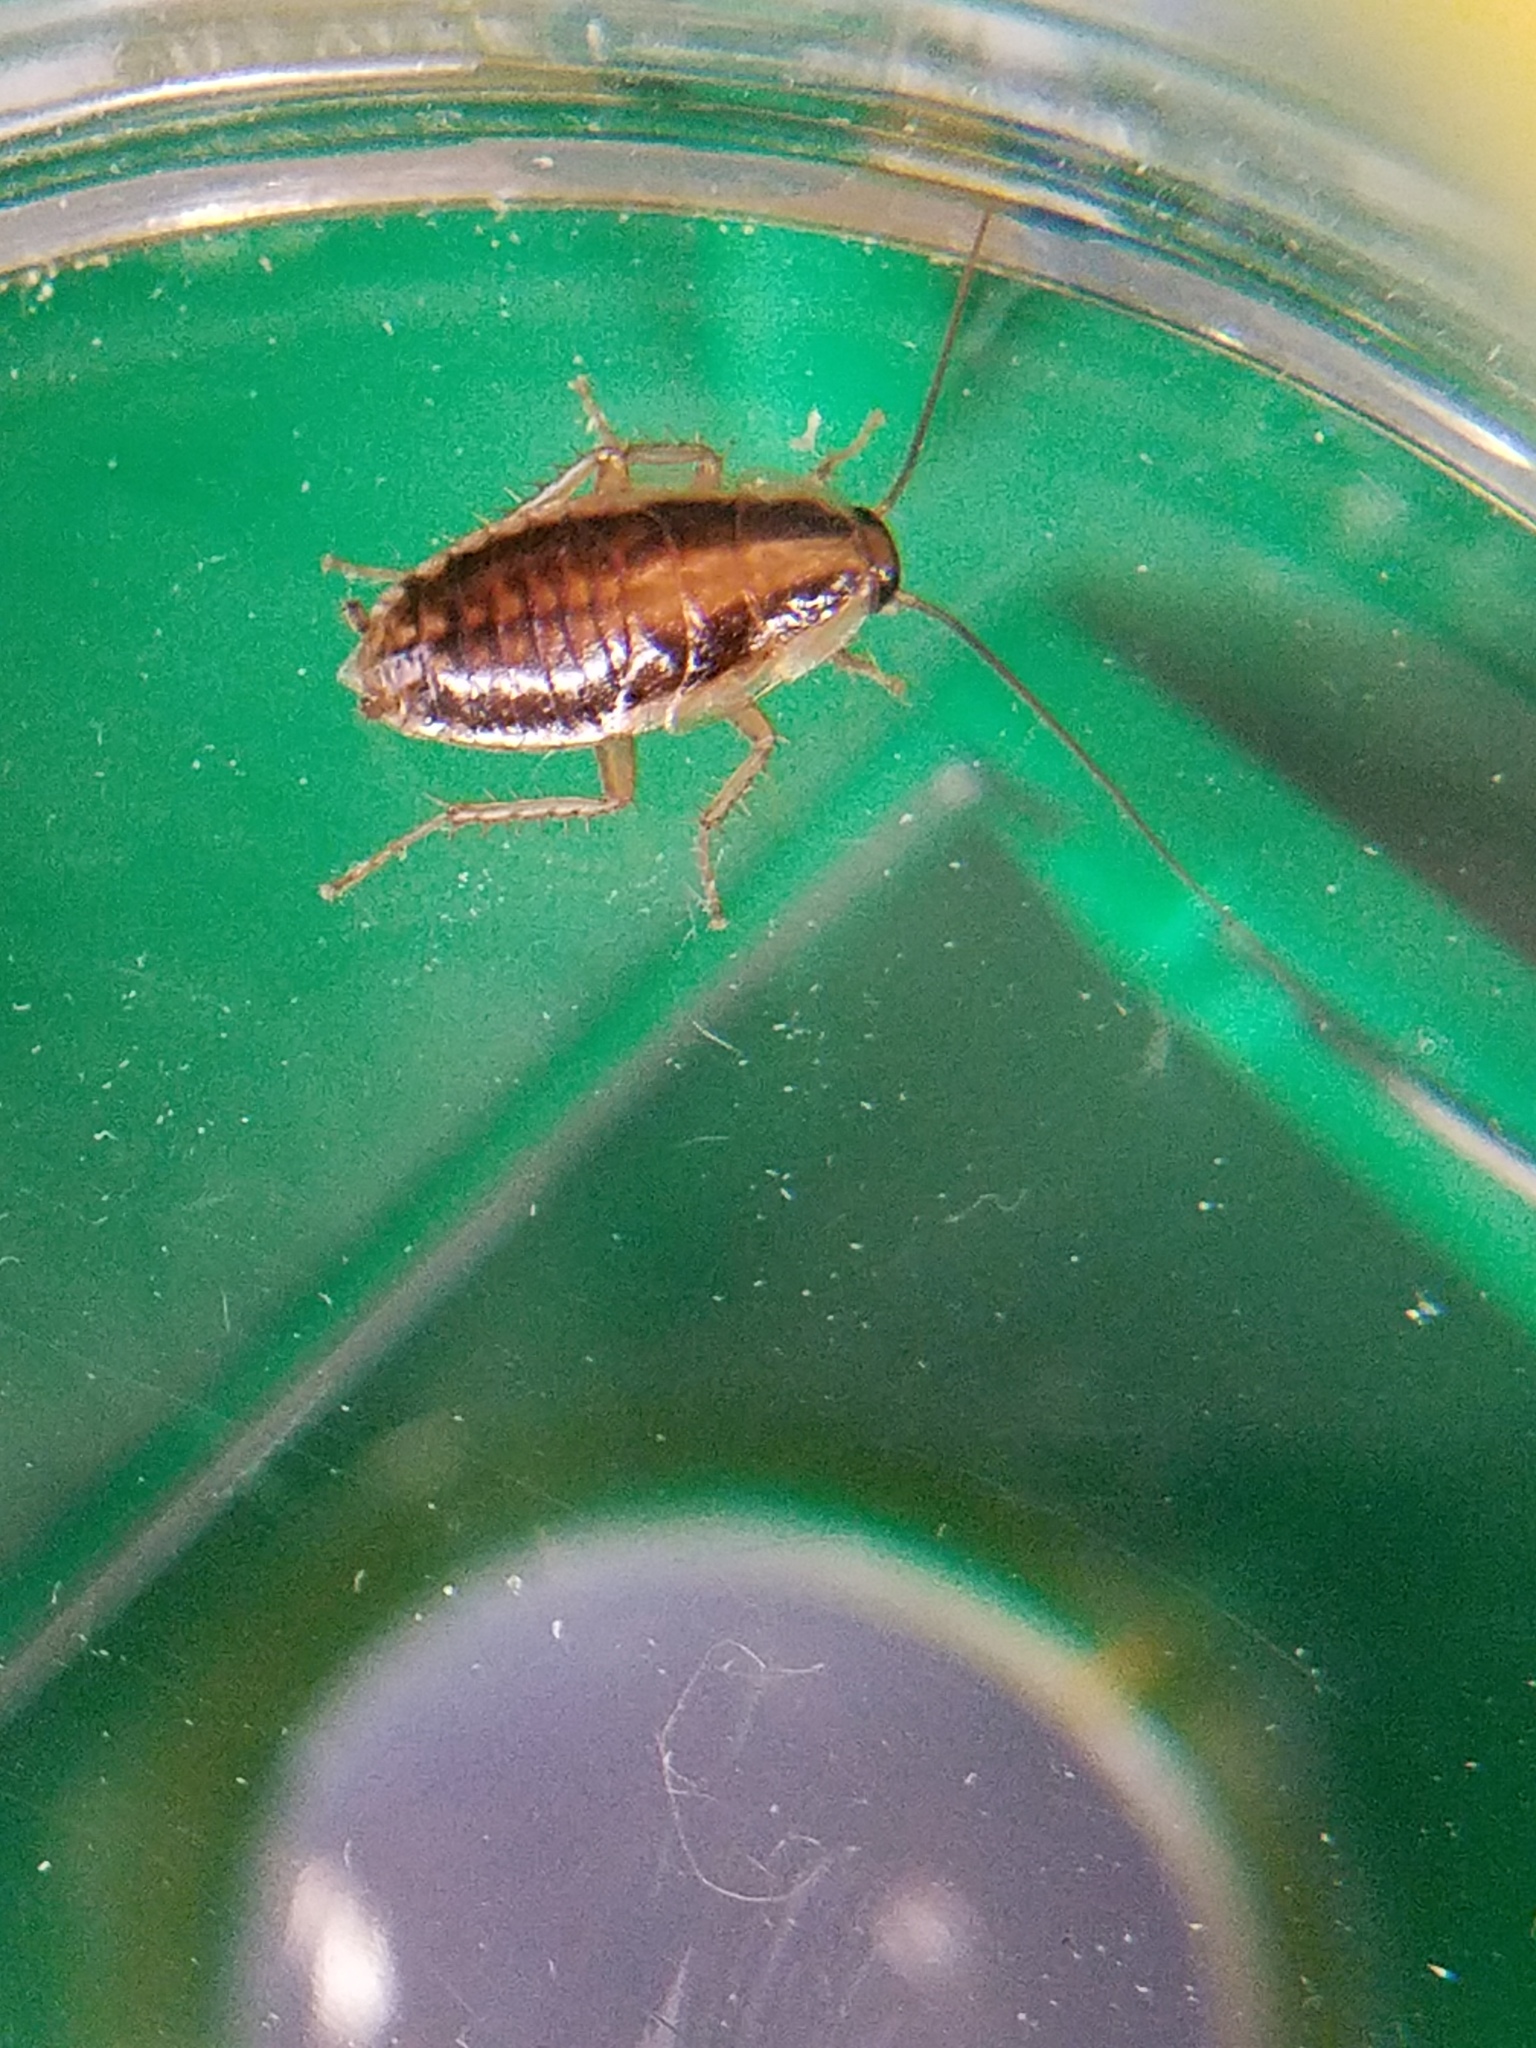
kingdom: Animalia
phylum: Arthropoda
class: Insecta
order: Blattodea
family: Ectobiidae
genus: Blattella
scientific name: Blattella germanica
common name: German cockroach
